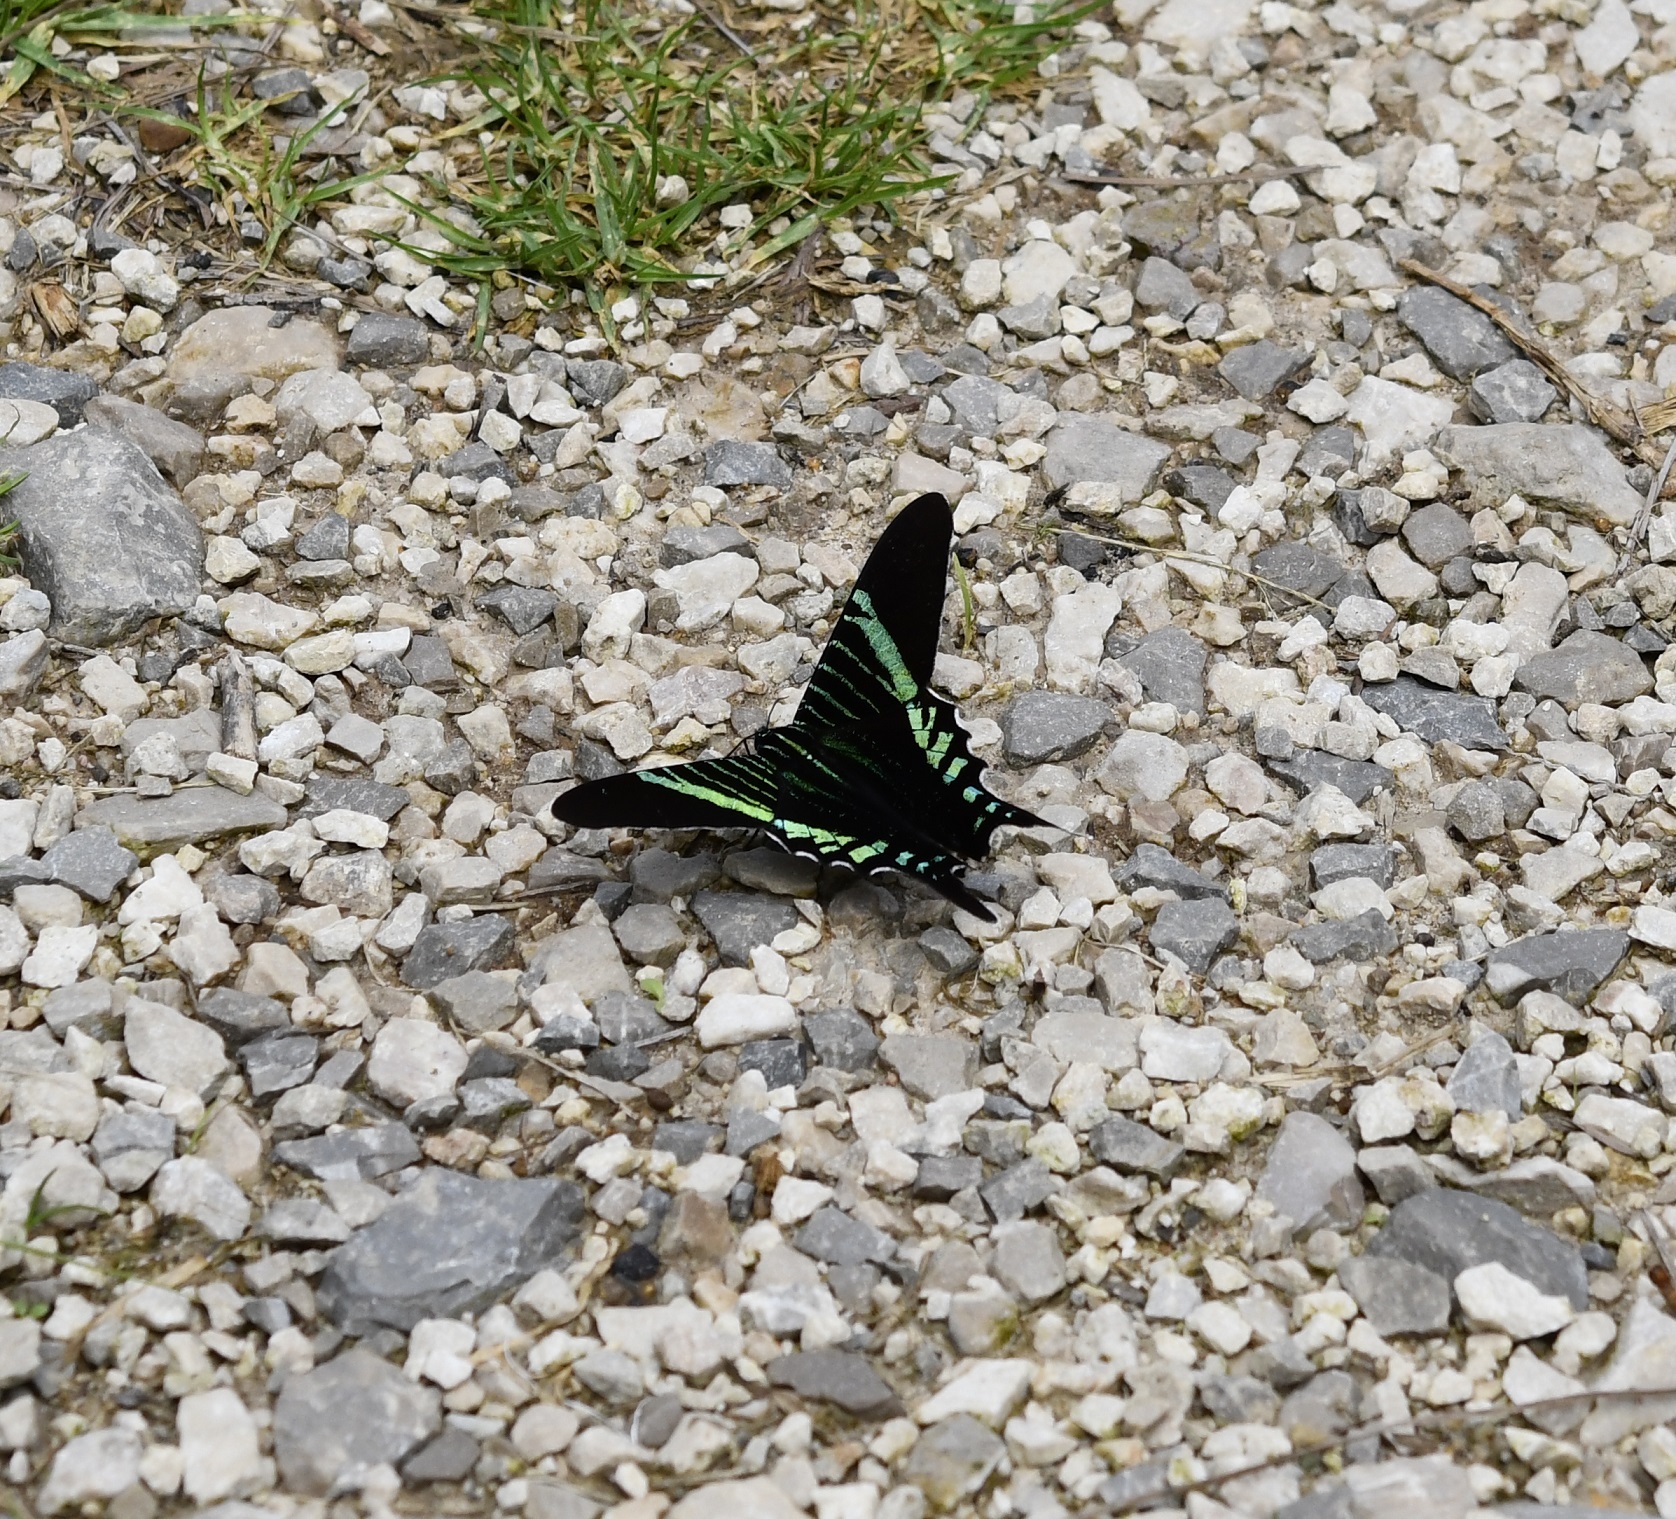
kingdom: Animalia
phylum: Arthropoda
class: Insecta
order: Lepidoptera
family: Uraniidae
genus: Urania
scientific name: Urania fulgens
